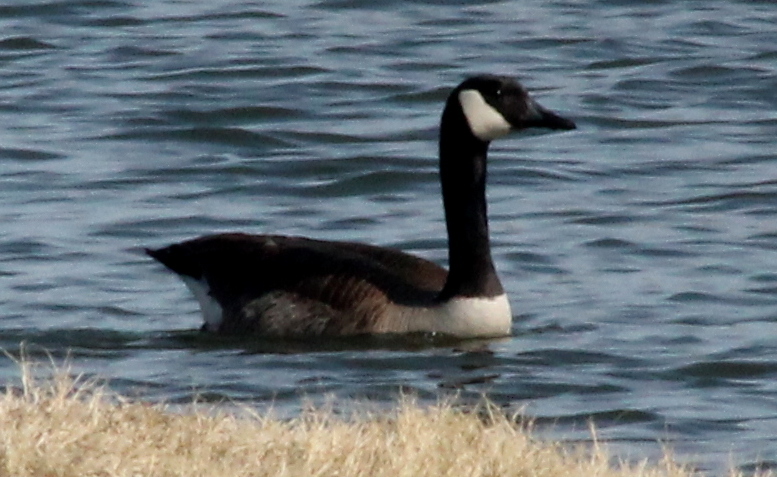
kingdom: Animalia
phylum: Chordata
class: Aves
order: Anseriformes
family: Anatidae
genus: Branta
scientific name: Branta canadensis
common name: Canada goose
